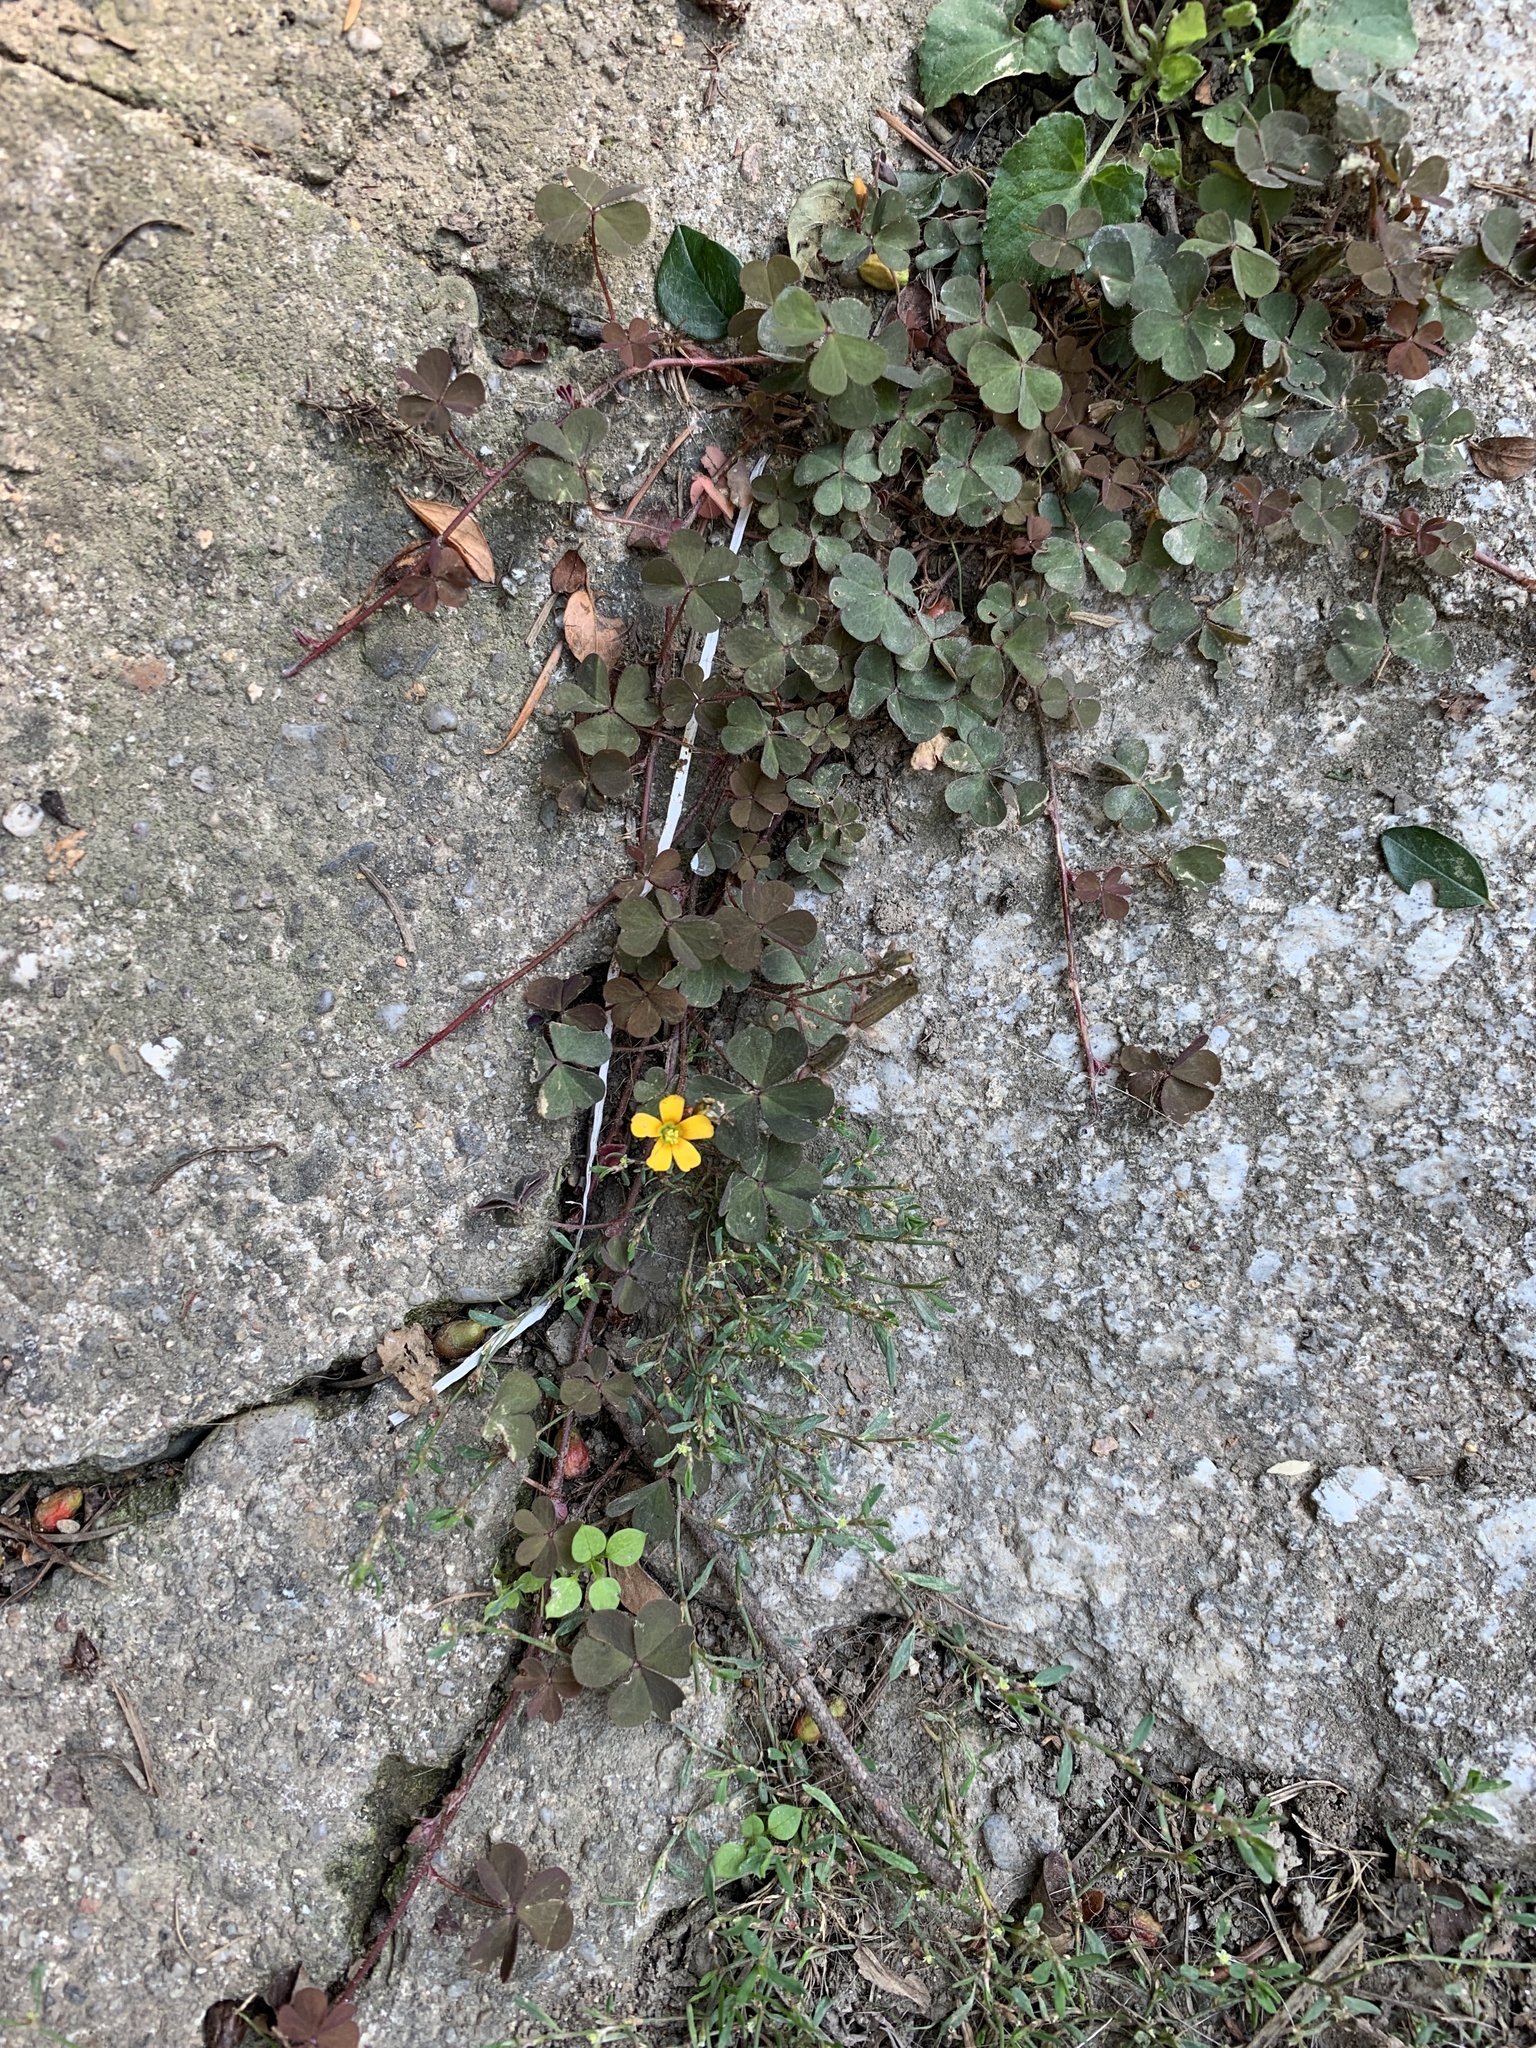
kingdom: Plantae
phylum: Tracheophyta
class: Magnoliopsida
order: Oxalidales
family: Oxalidaceae
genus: Oxalis
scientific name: Oxalis corniculata
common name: Procumbent yellow-sorrel
